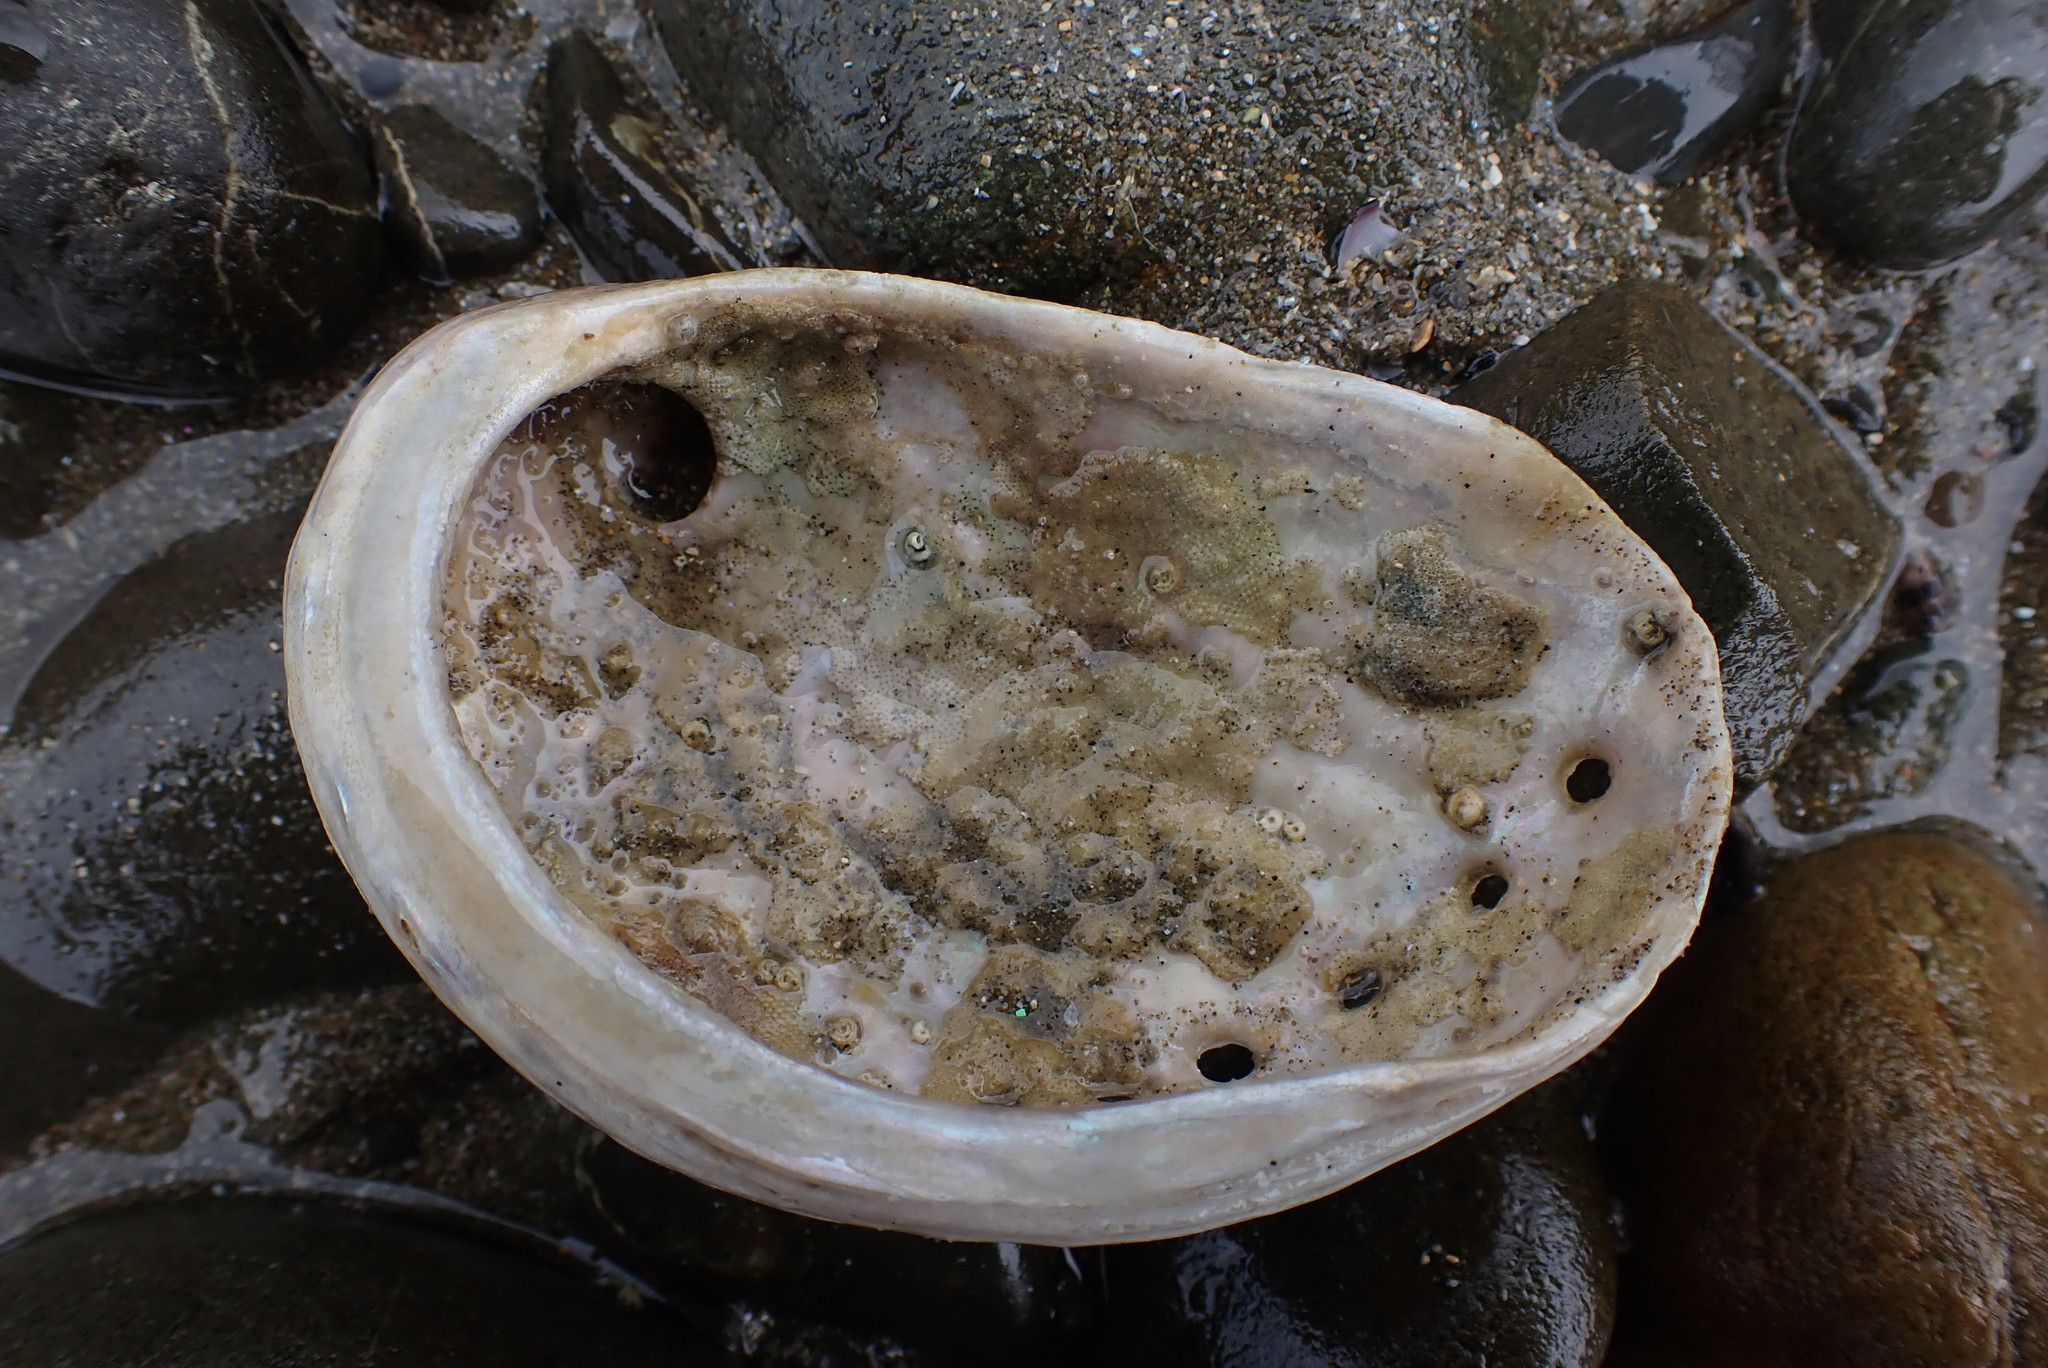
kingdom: Animalia
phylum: Mollusca
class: Gastropoda
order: Lepetellida
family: Haliotidae
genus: Haliotis
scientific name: Haliotis australis
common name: Silver abalone
